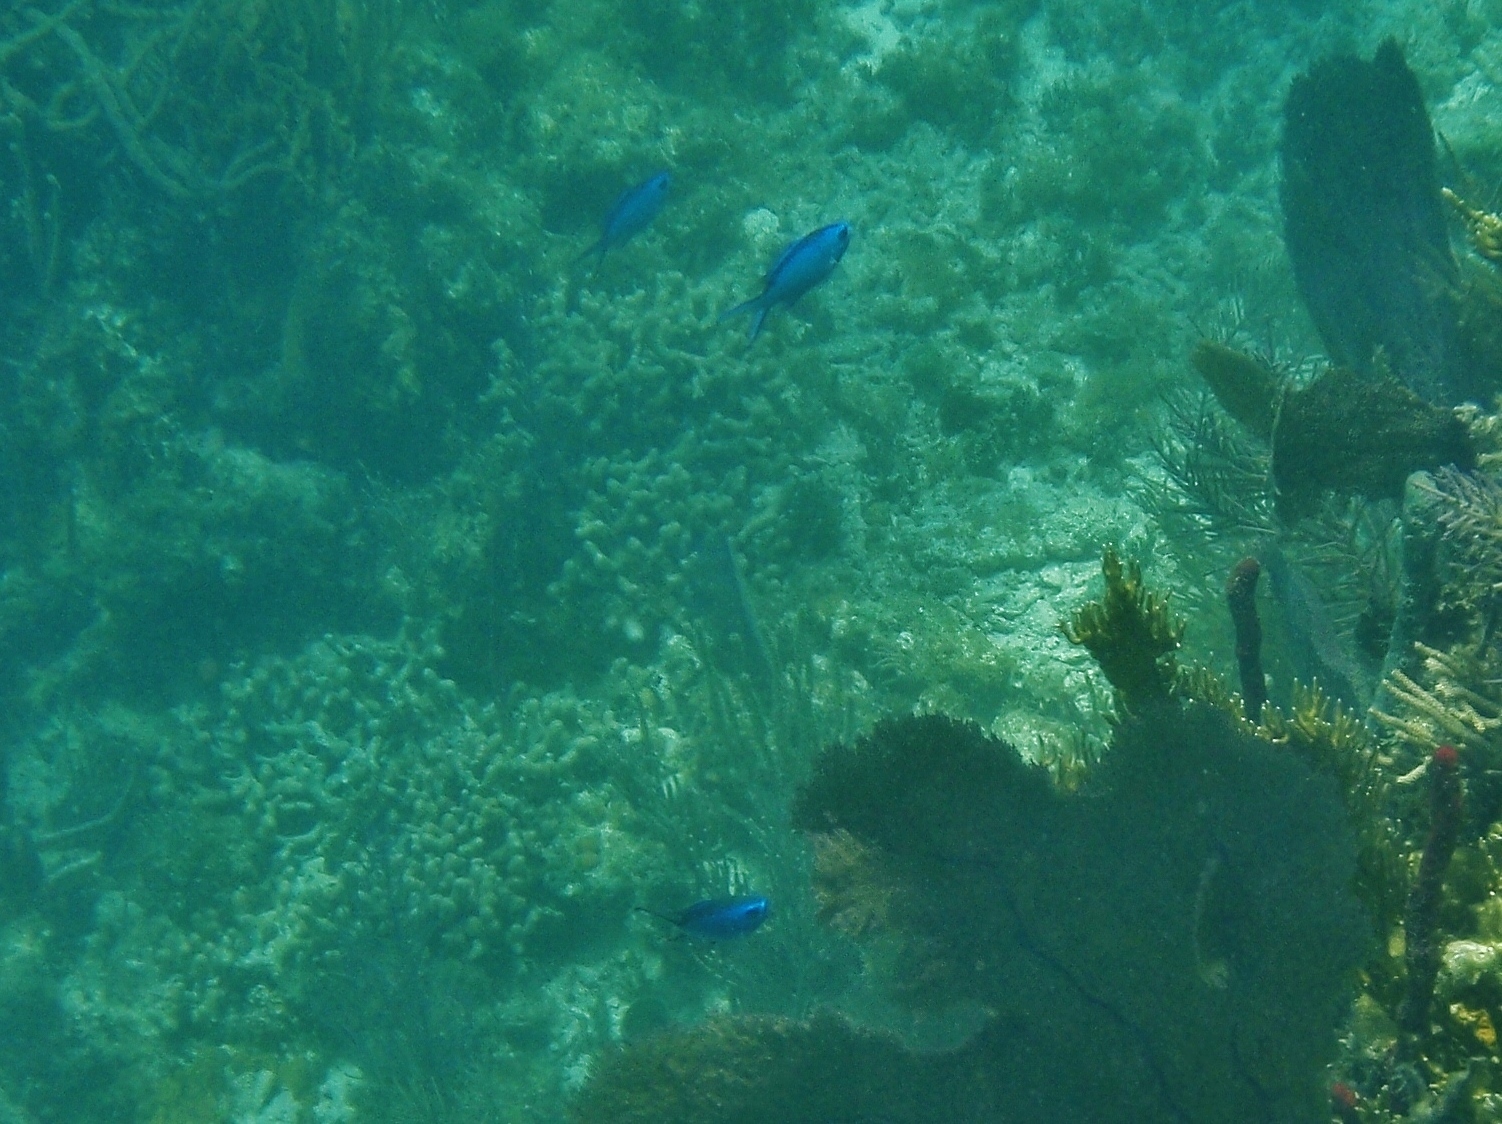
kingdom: Animalia
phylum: Chordata
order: Perciformes
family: Pomacentridae
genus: Chromis
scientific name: Chromis cyanea
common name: Blue chromis
